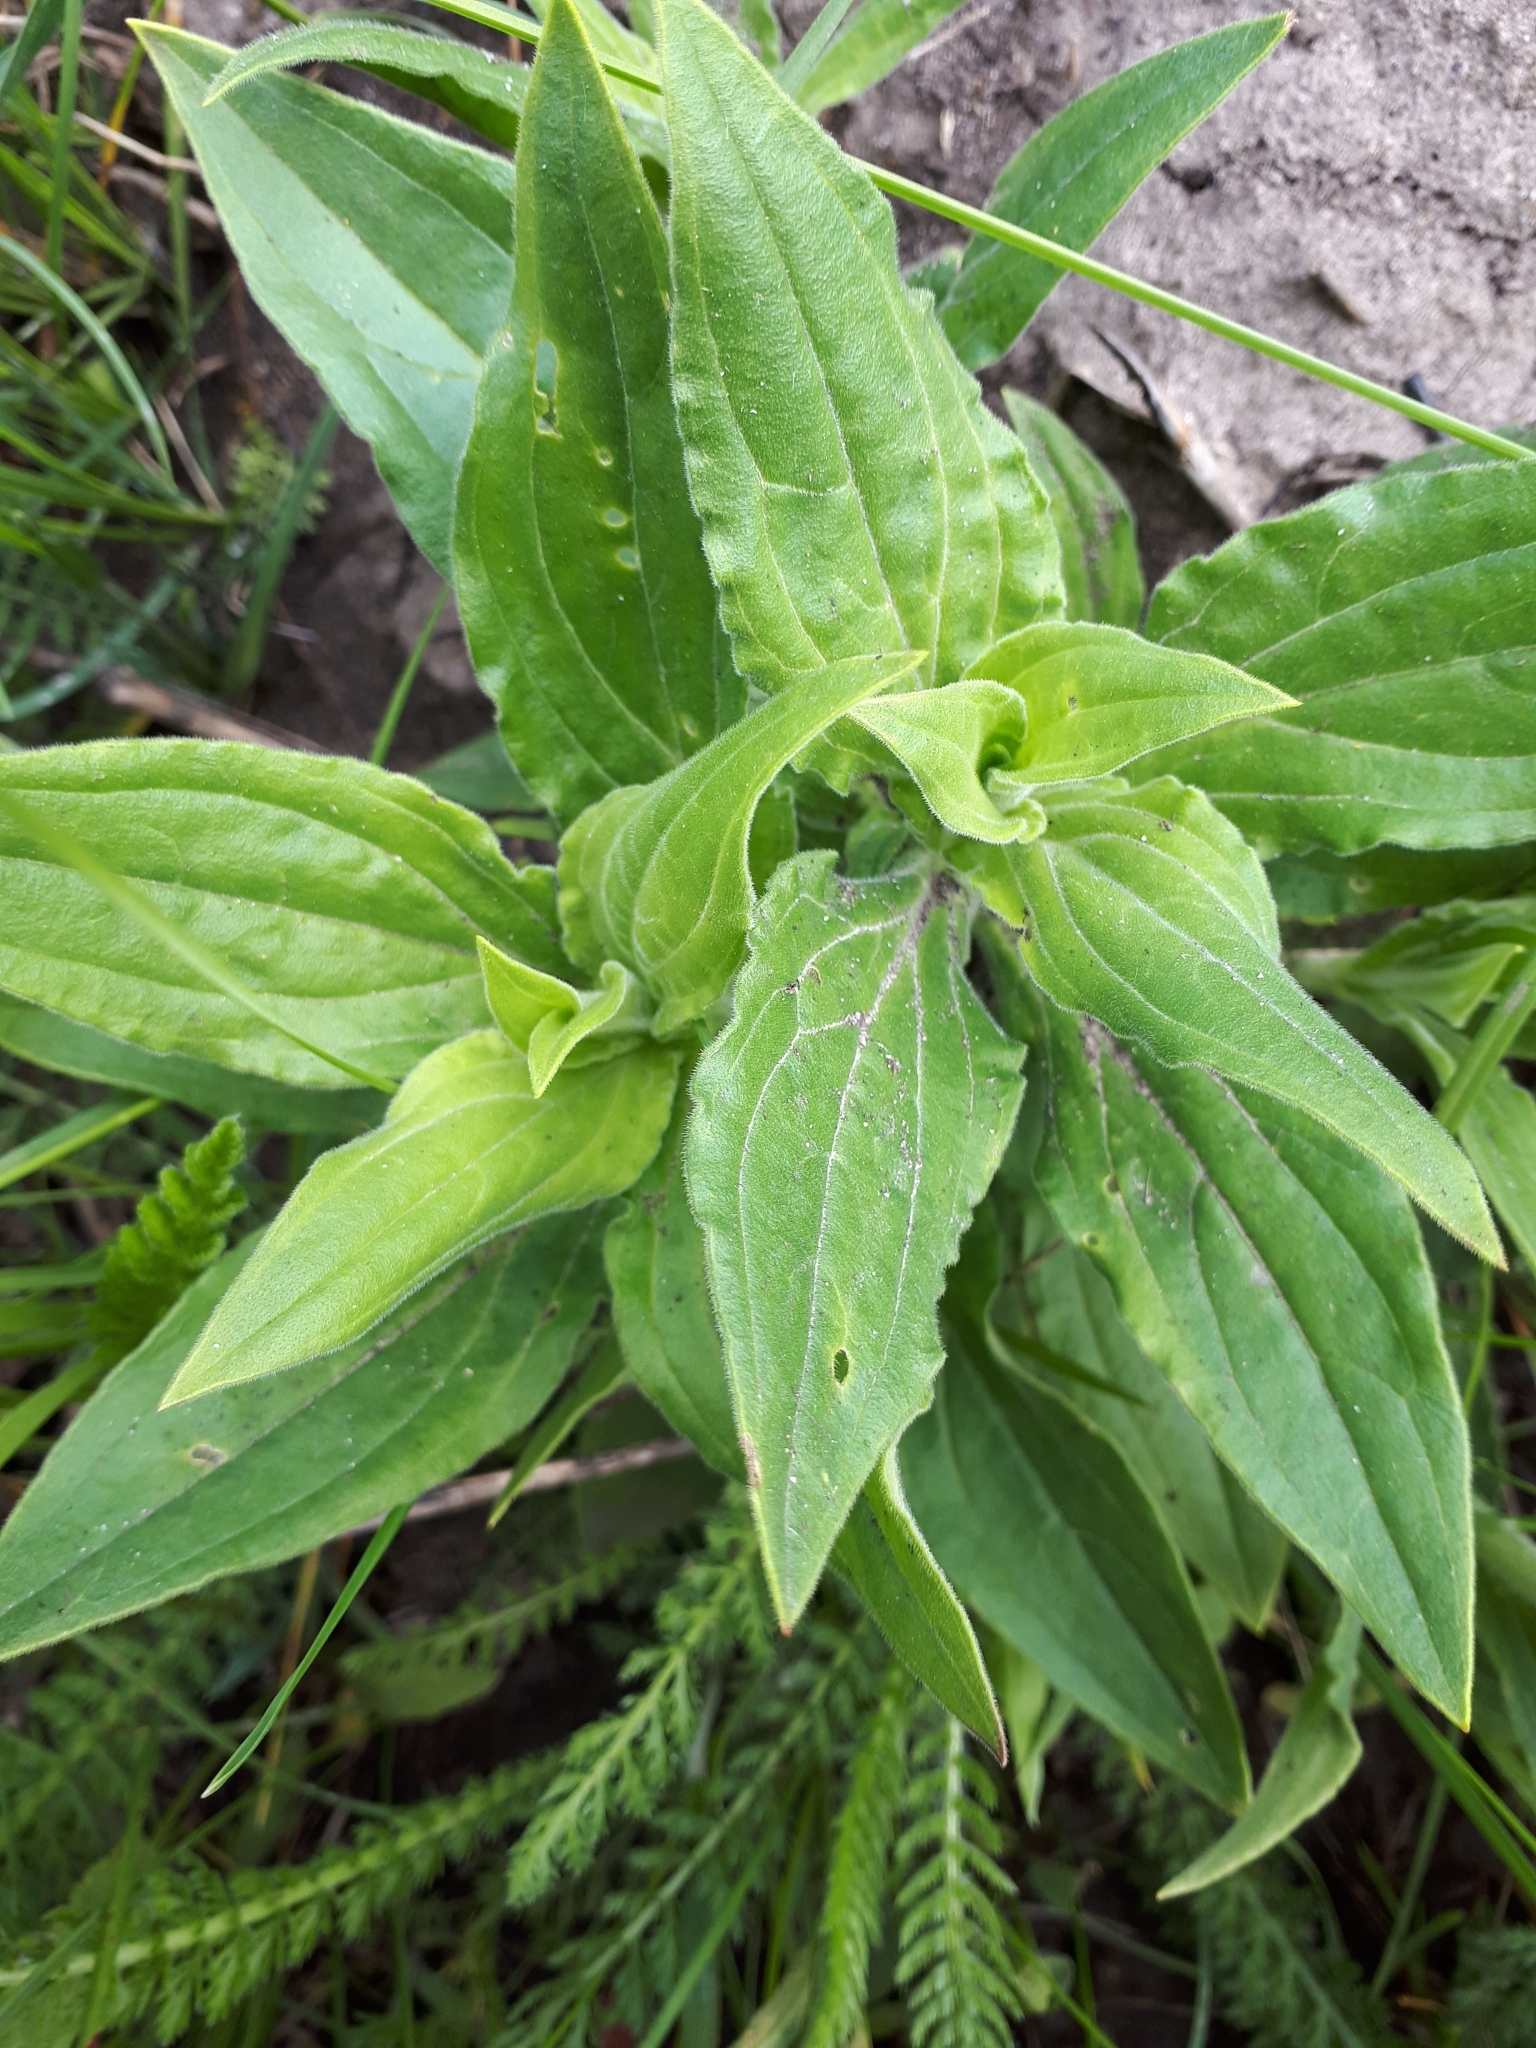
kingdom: Plantae
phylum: Tracheophyta
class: Magnoliopsida
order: Caryophyllales
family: Caryophyllaceae
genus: Silene
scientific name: Silene latifolia
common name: White campion
